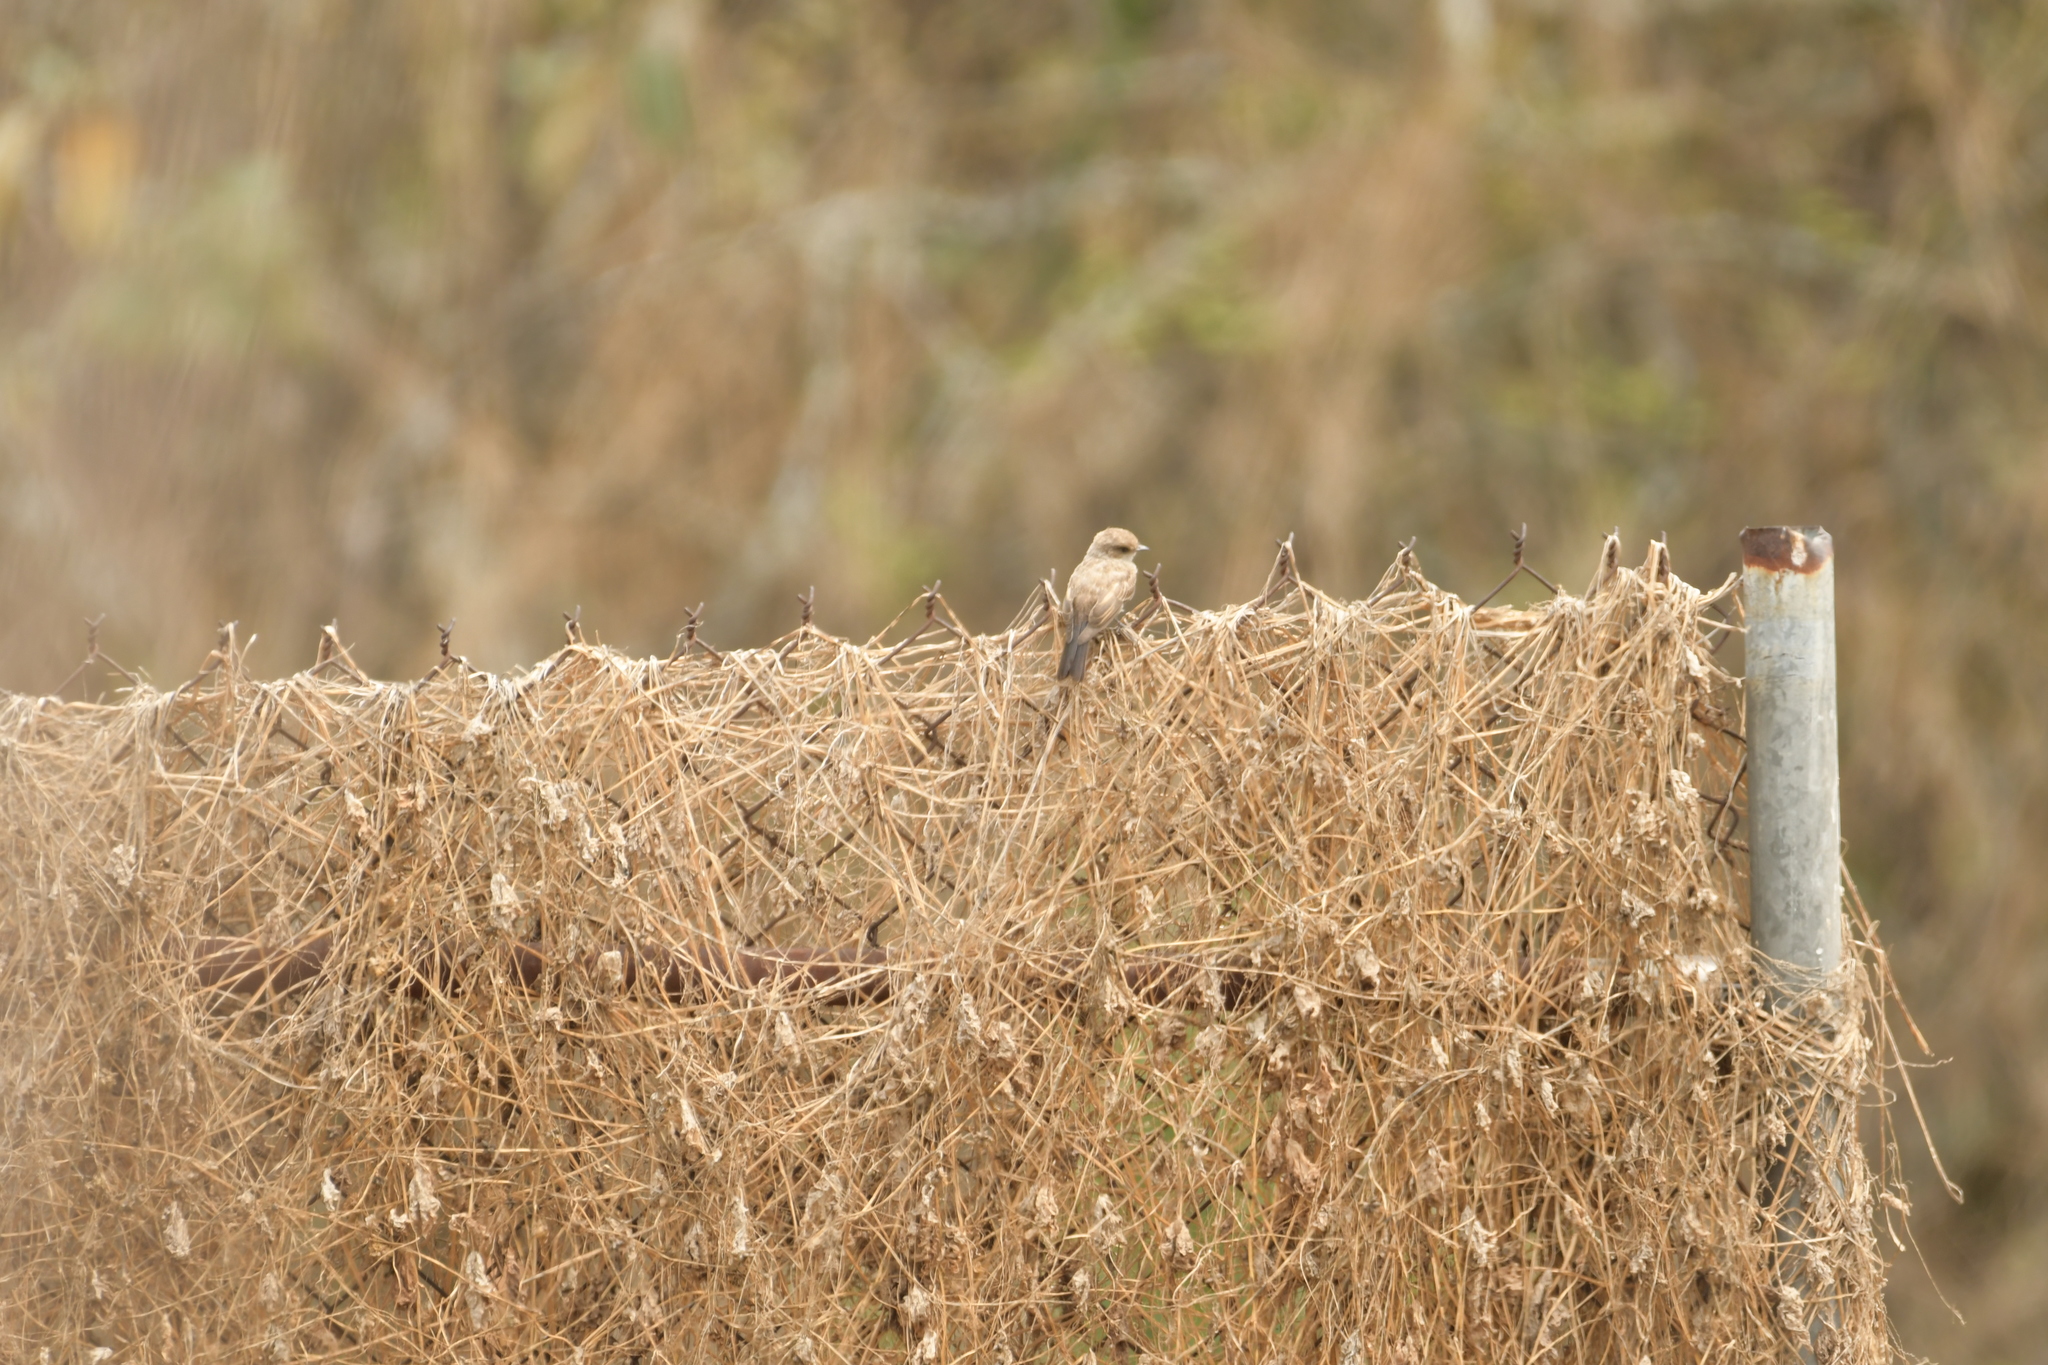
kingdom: Animalia
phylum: Chordata
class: Aves
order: Passeriformes
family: Tyrannidae
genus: Pyrocephalus
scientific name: Pyrocephalus rubinus
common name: Vermilion flycatcher
